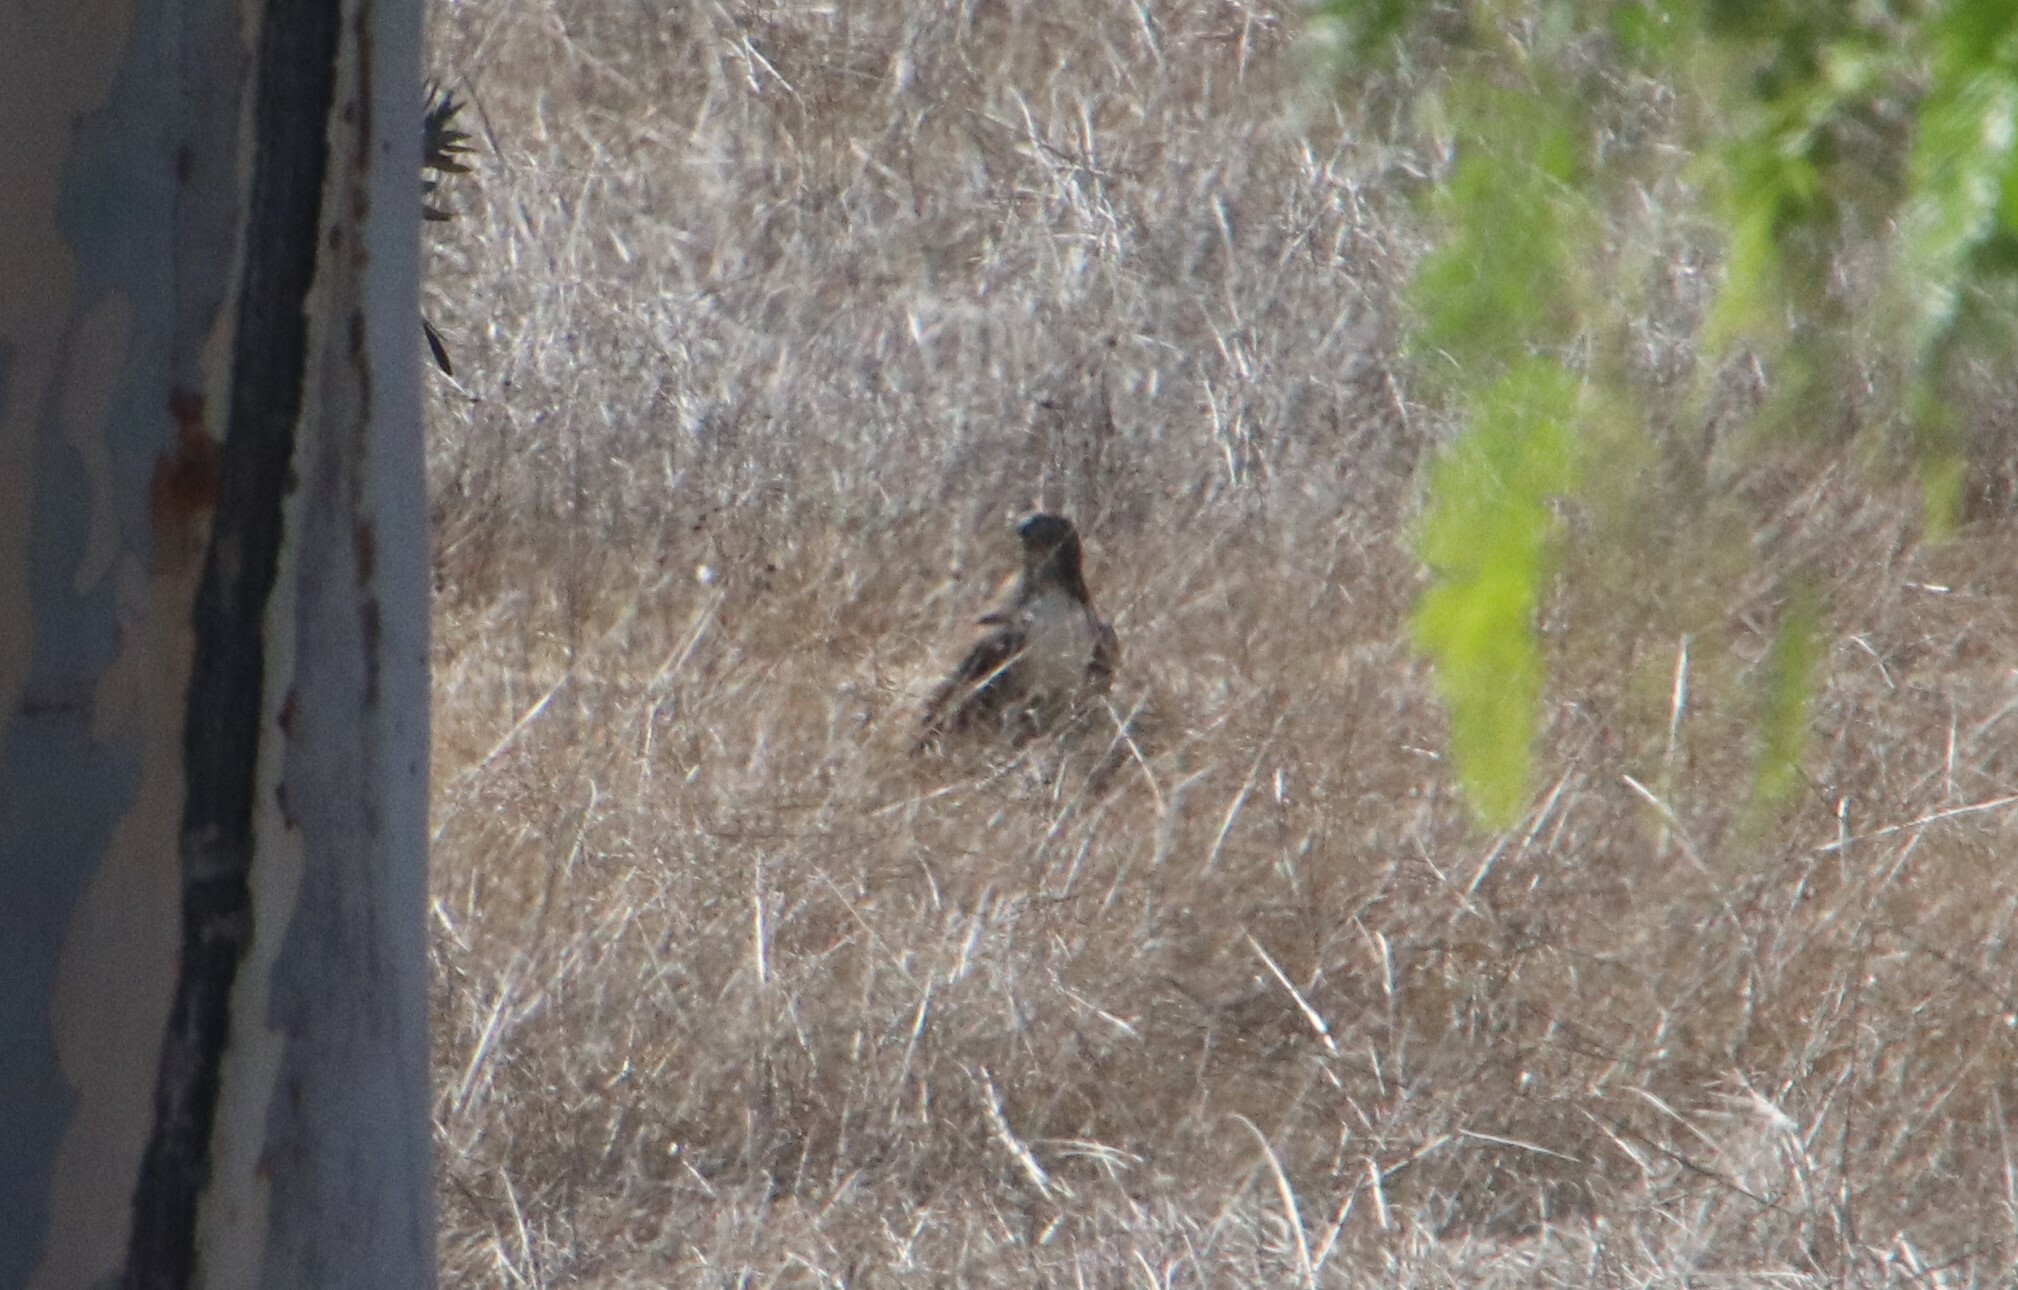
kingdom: Animalia
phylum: Chordata
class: Aves
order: Accipitriformes
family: Accipitridae
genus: Buteo
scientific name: Buteo jamaicensis
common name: Red-tailed hawk
